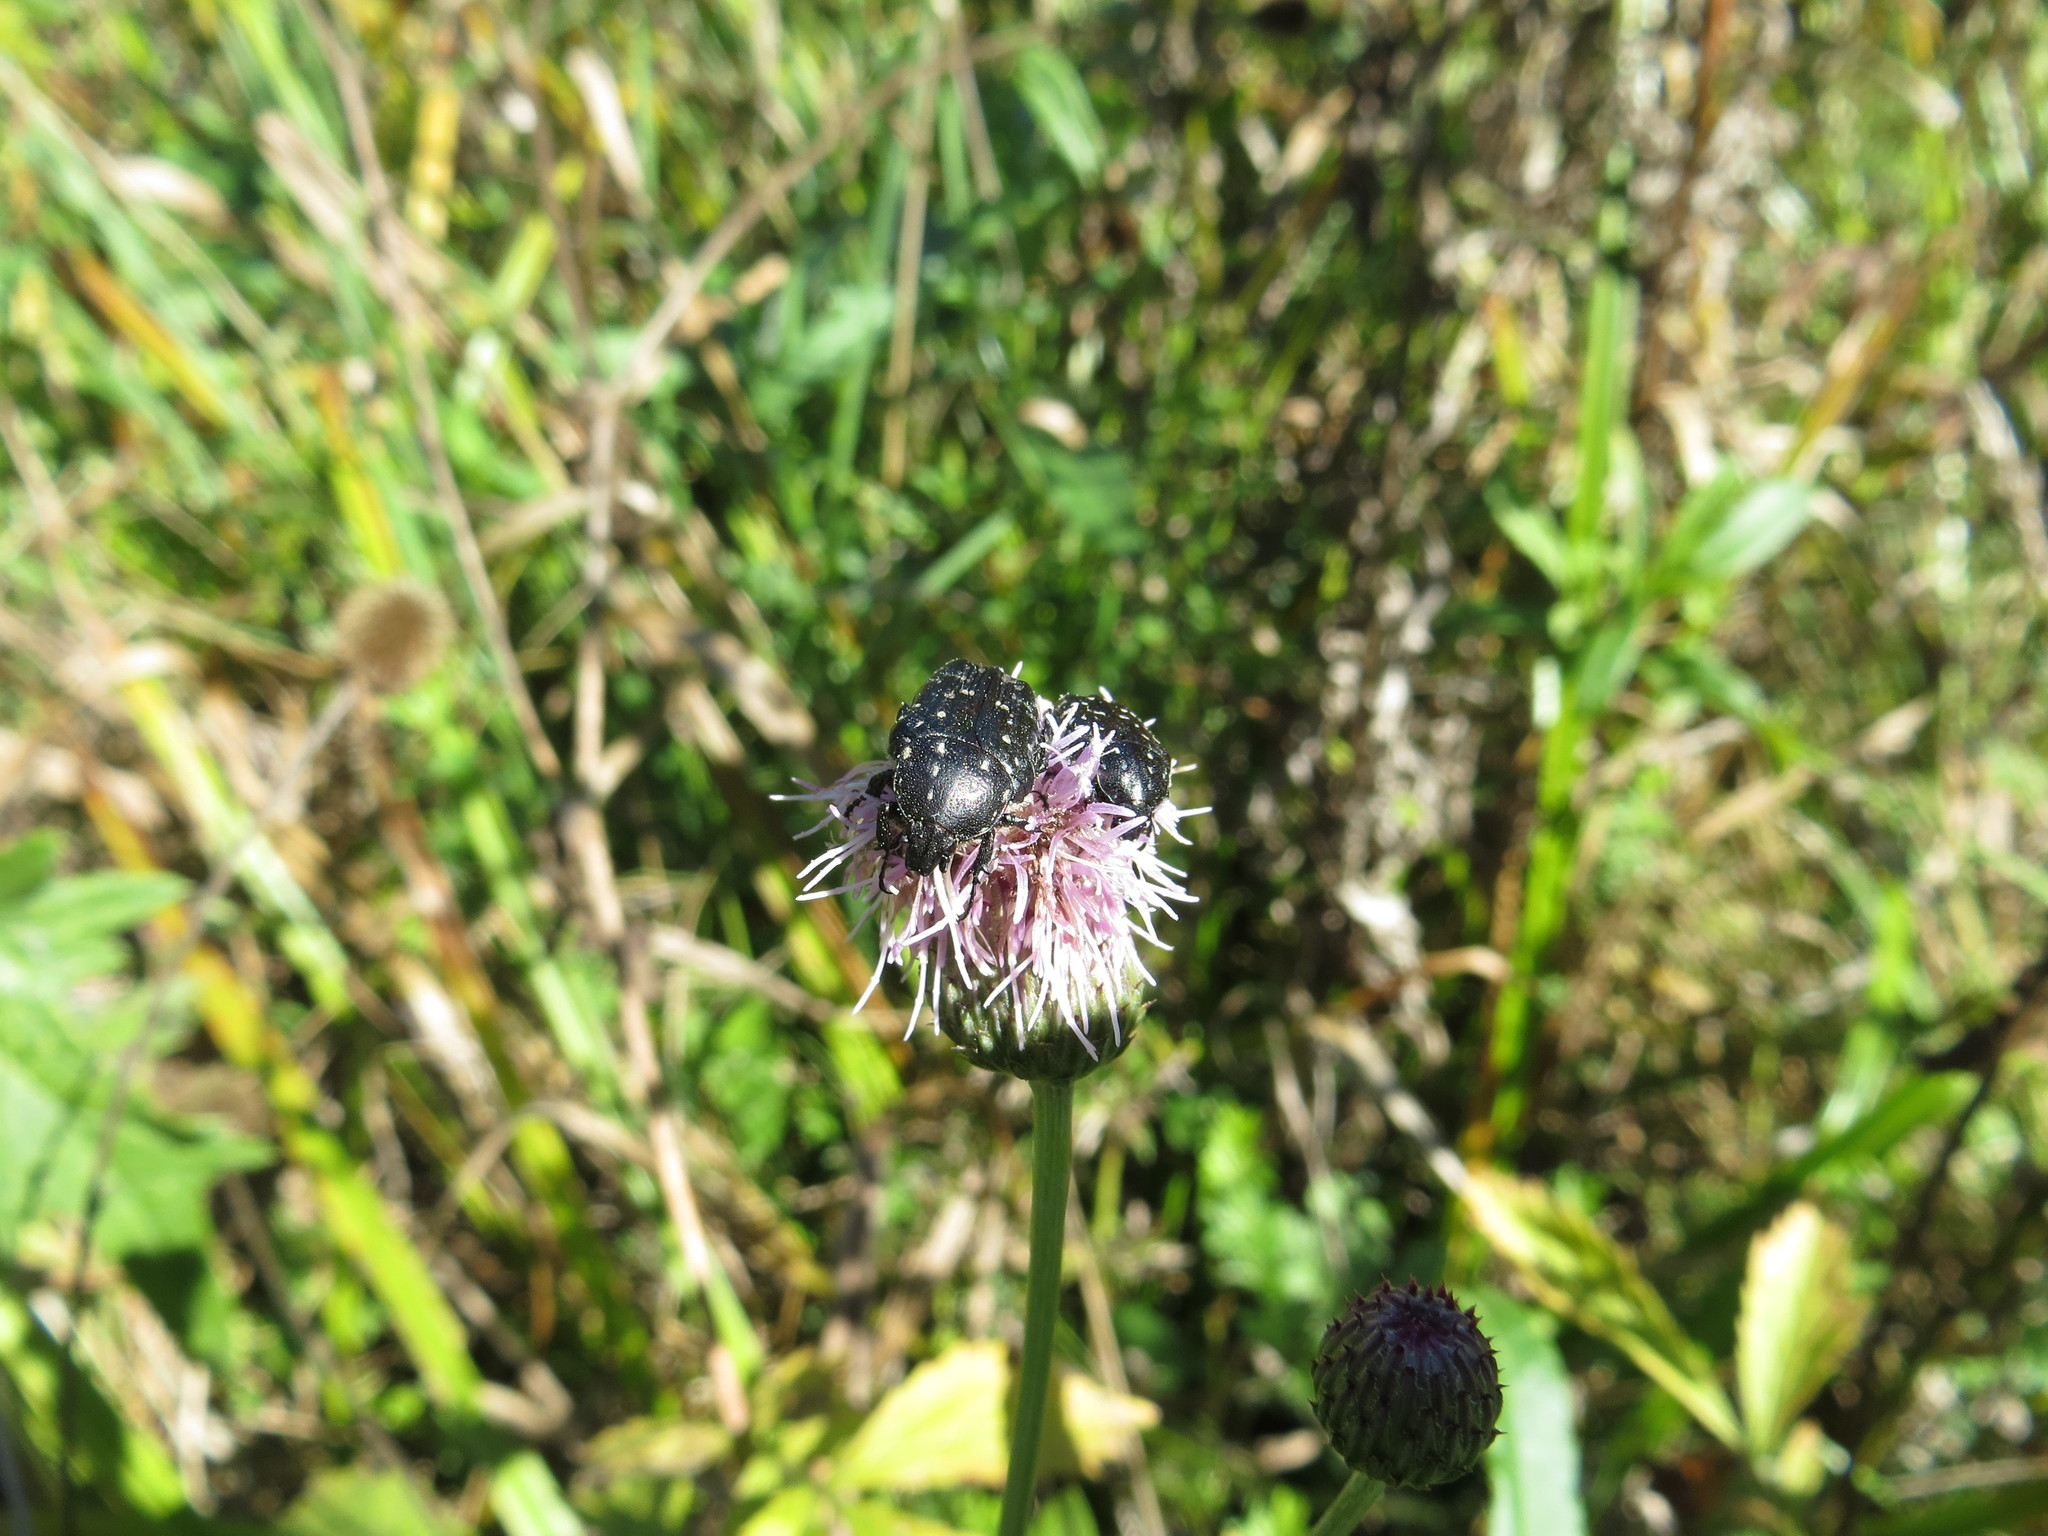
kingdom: Animalia
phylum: Arthropoda
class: Insecta
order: Coleoptera
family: Scarabaeidae
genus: Oxythyrea
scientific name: Oxythyrea funesta
